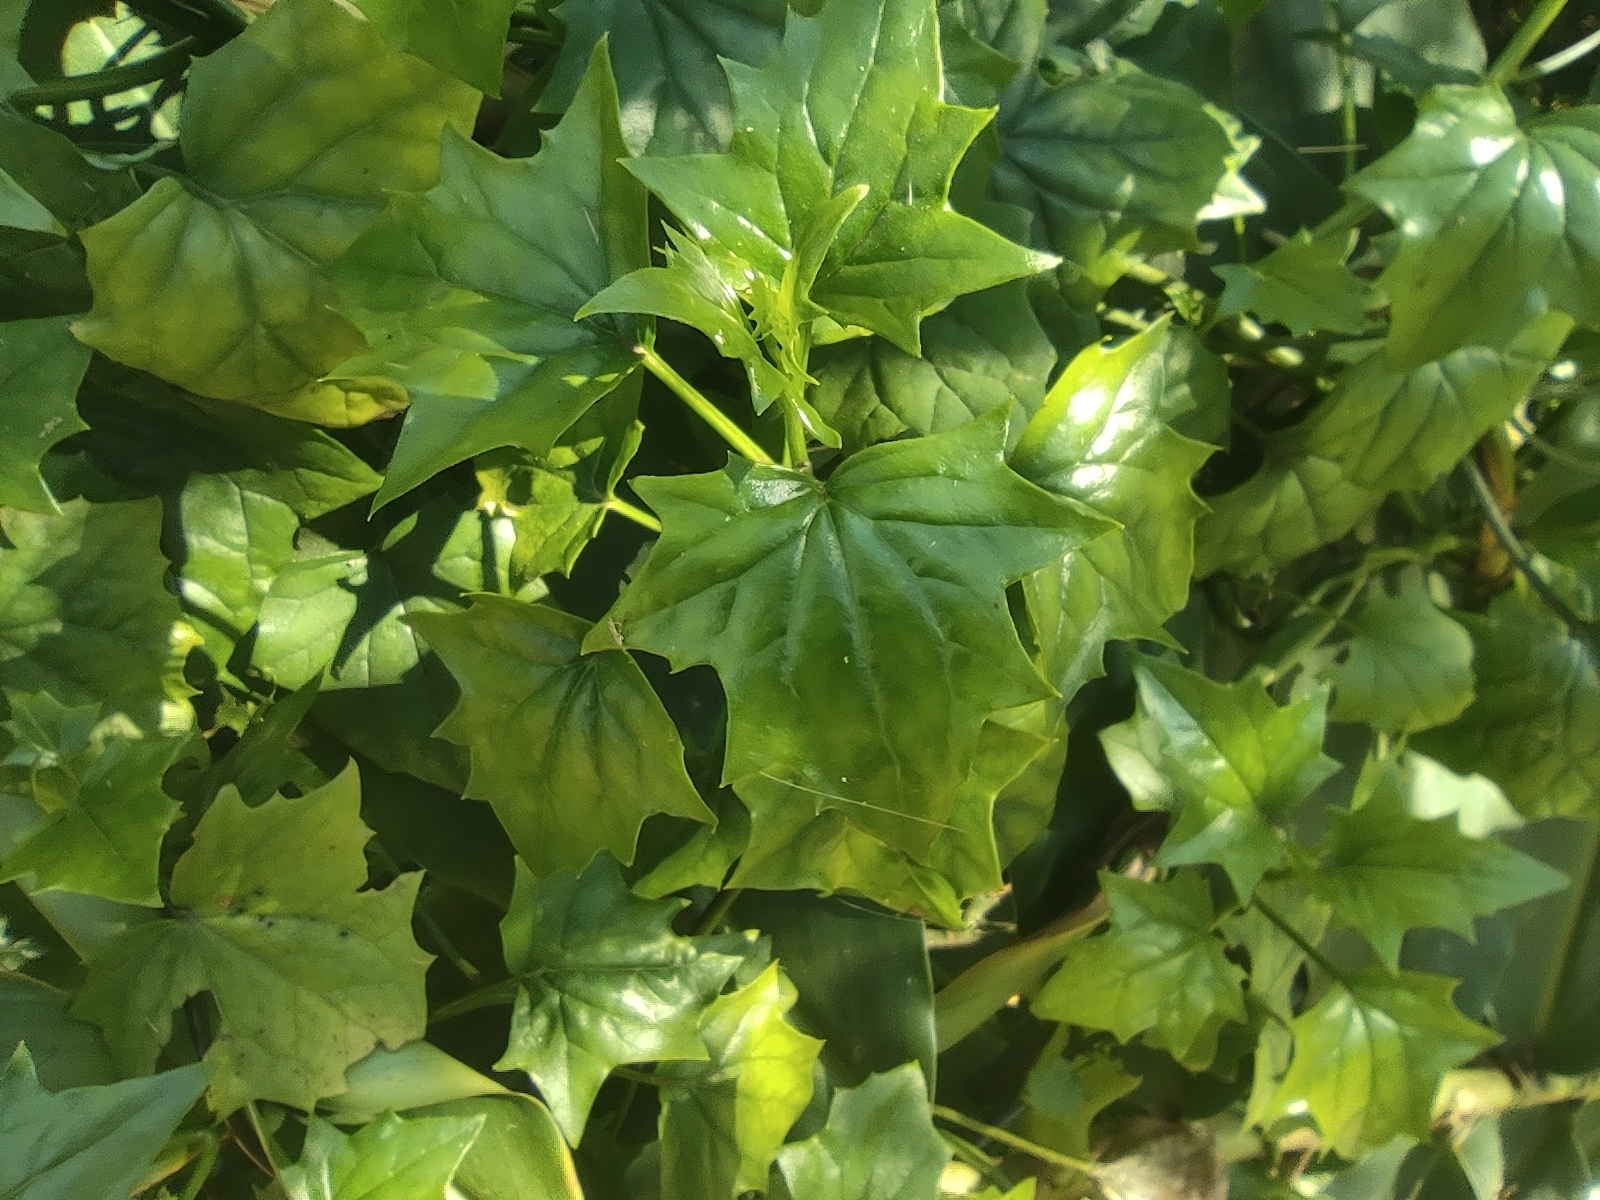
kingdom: Plantae
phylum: Tracheophyta
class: Magnoliopsida
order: Asterales
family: Asteraceae
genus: Senecio
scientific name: Senecio tamoides
